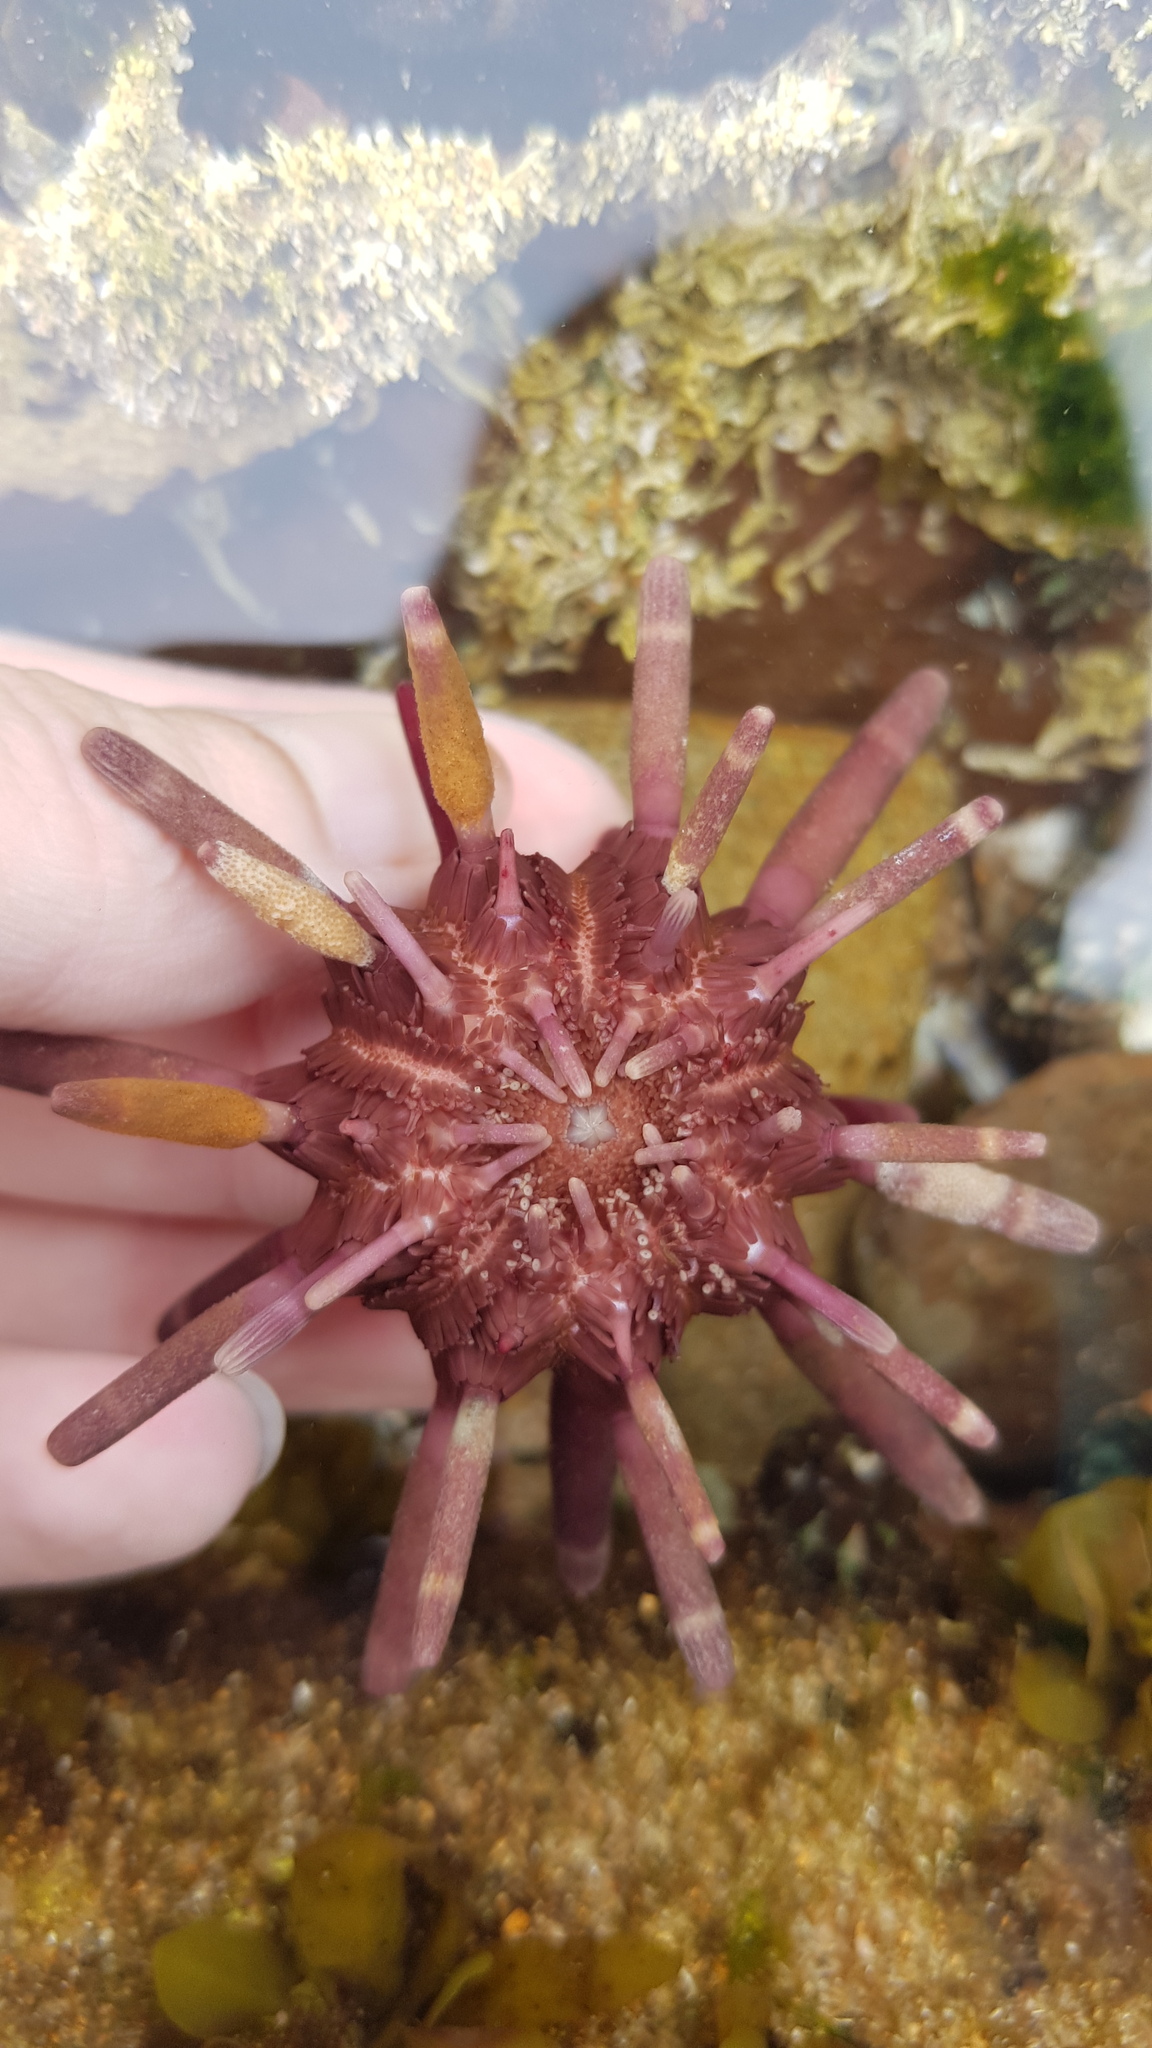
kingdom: Animalia
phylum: Echinodermata
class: Echinoidea
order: Cidaroida
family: Cidaridae
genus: Phyllacanthus
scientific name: Phyllacanthus parvispinus
